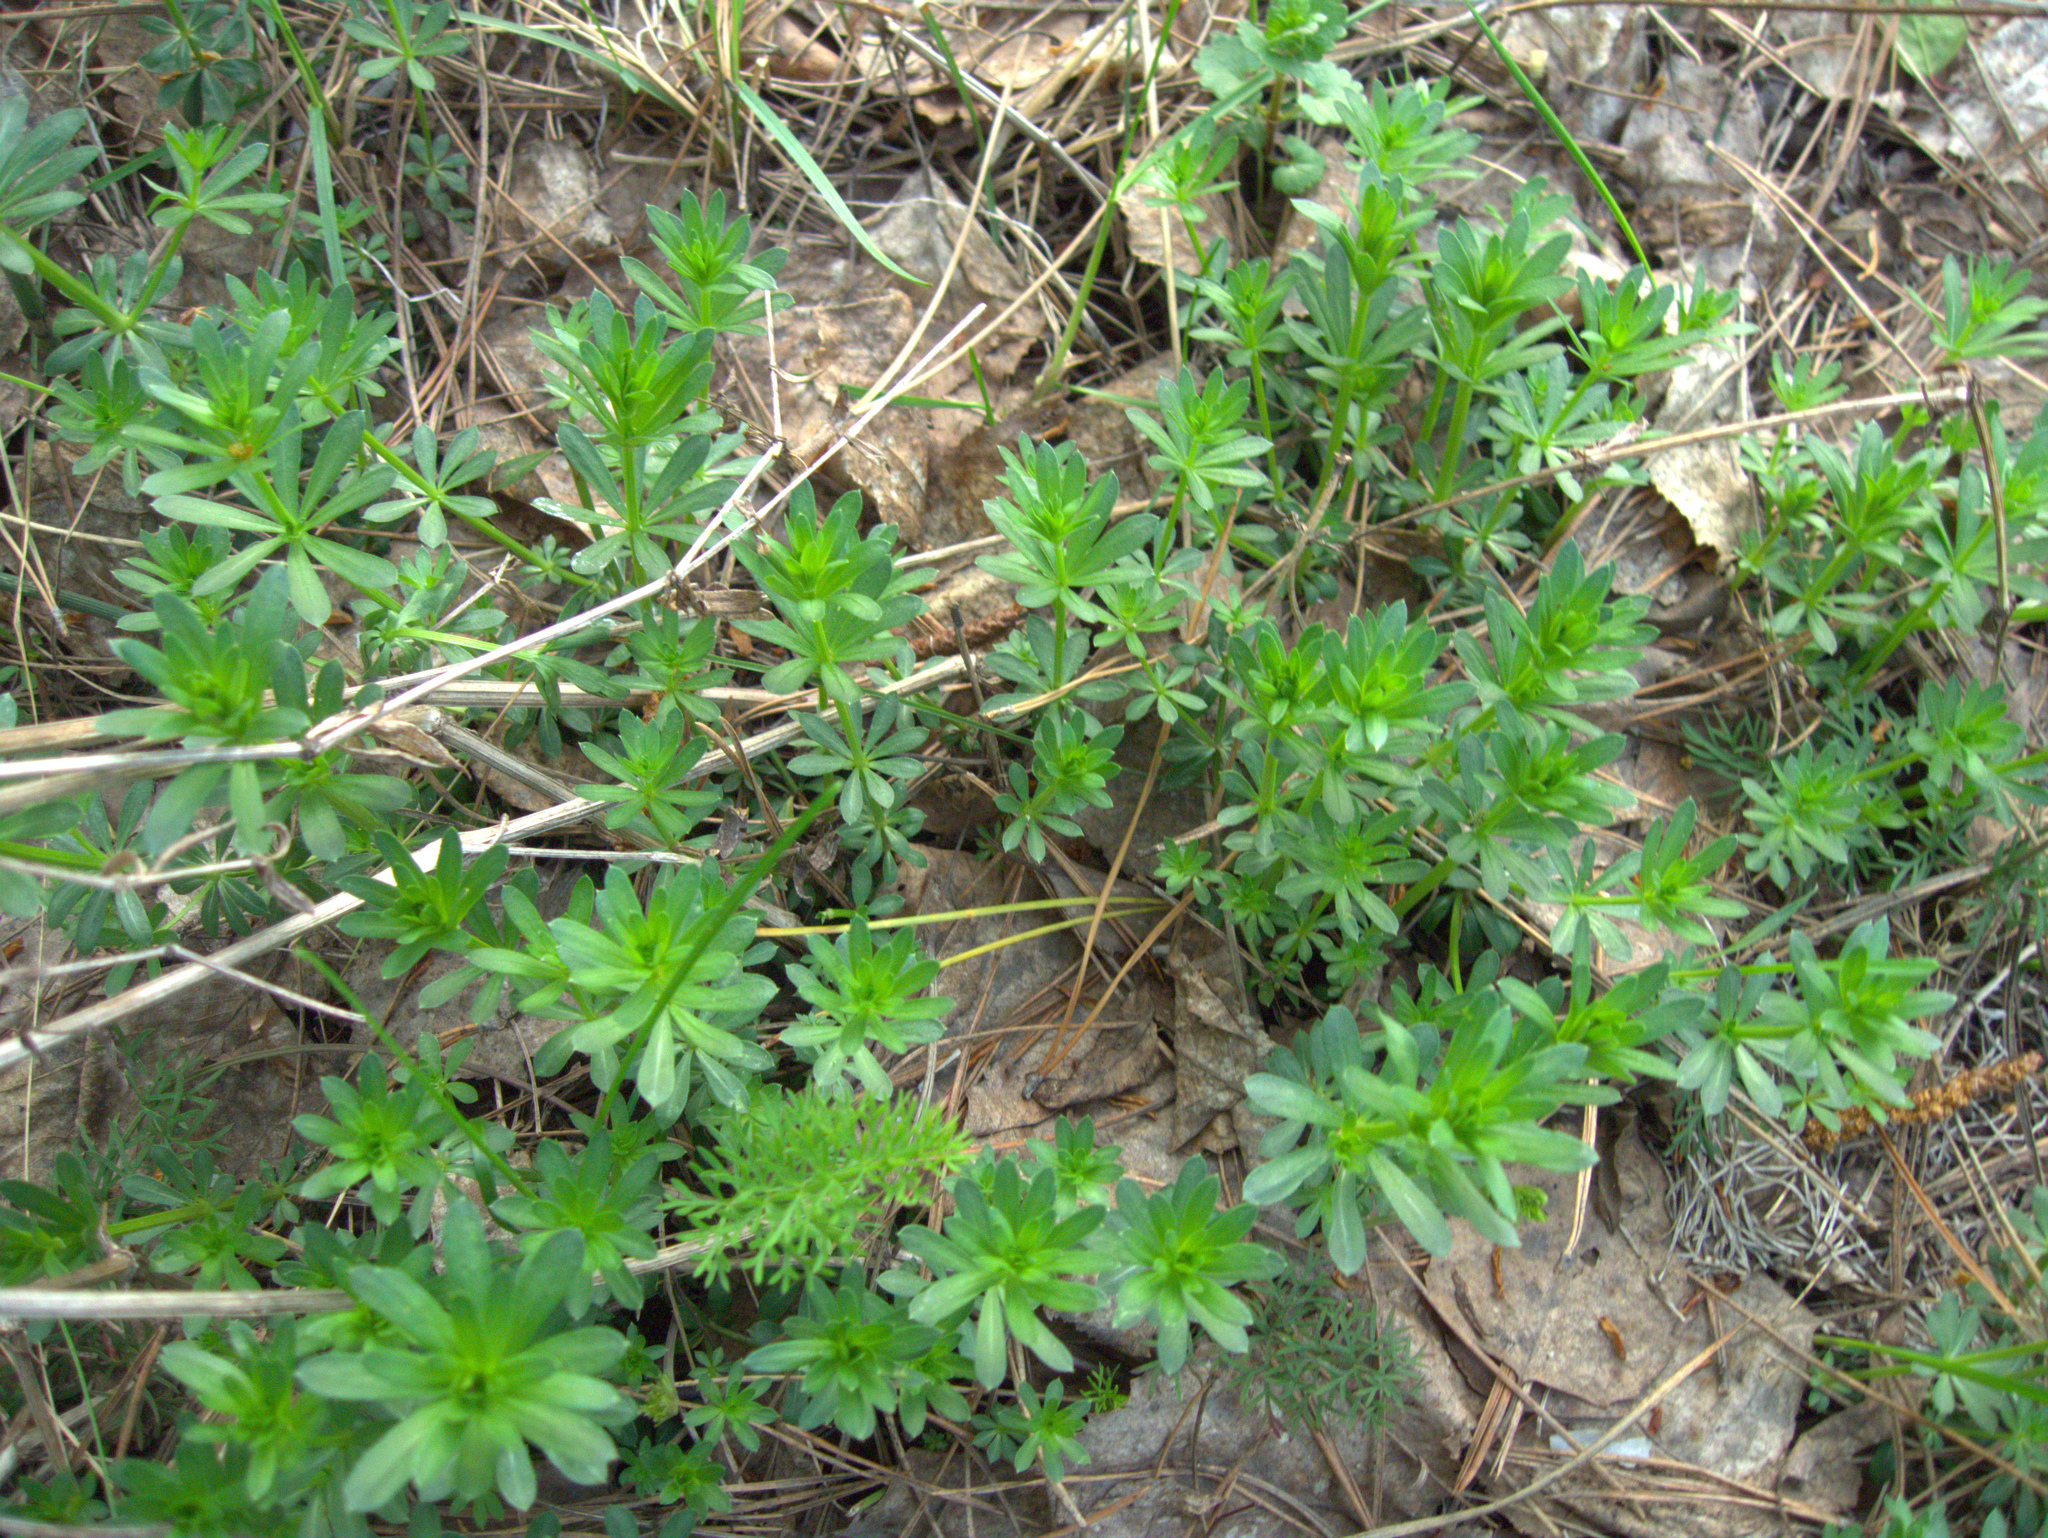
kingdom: Plantae
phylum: Tracheophyta
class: Magnoliopsida
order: Gentianales
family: Rubiaceae
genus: Galium
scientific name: Galium mollugo
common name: Hedge bedstraw
